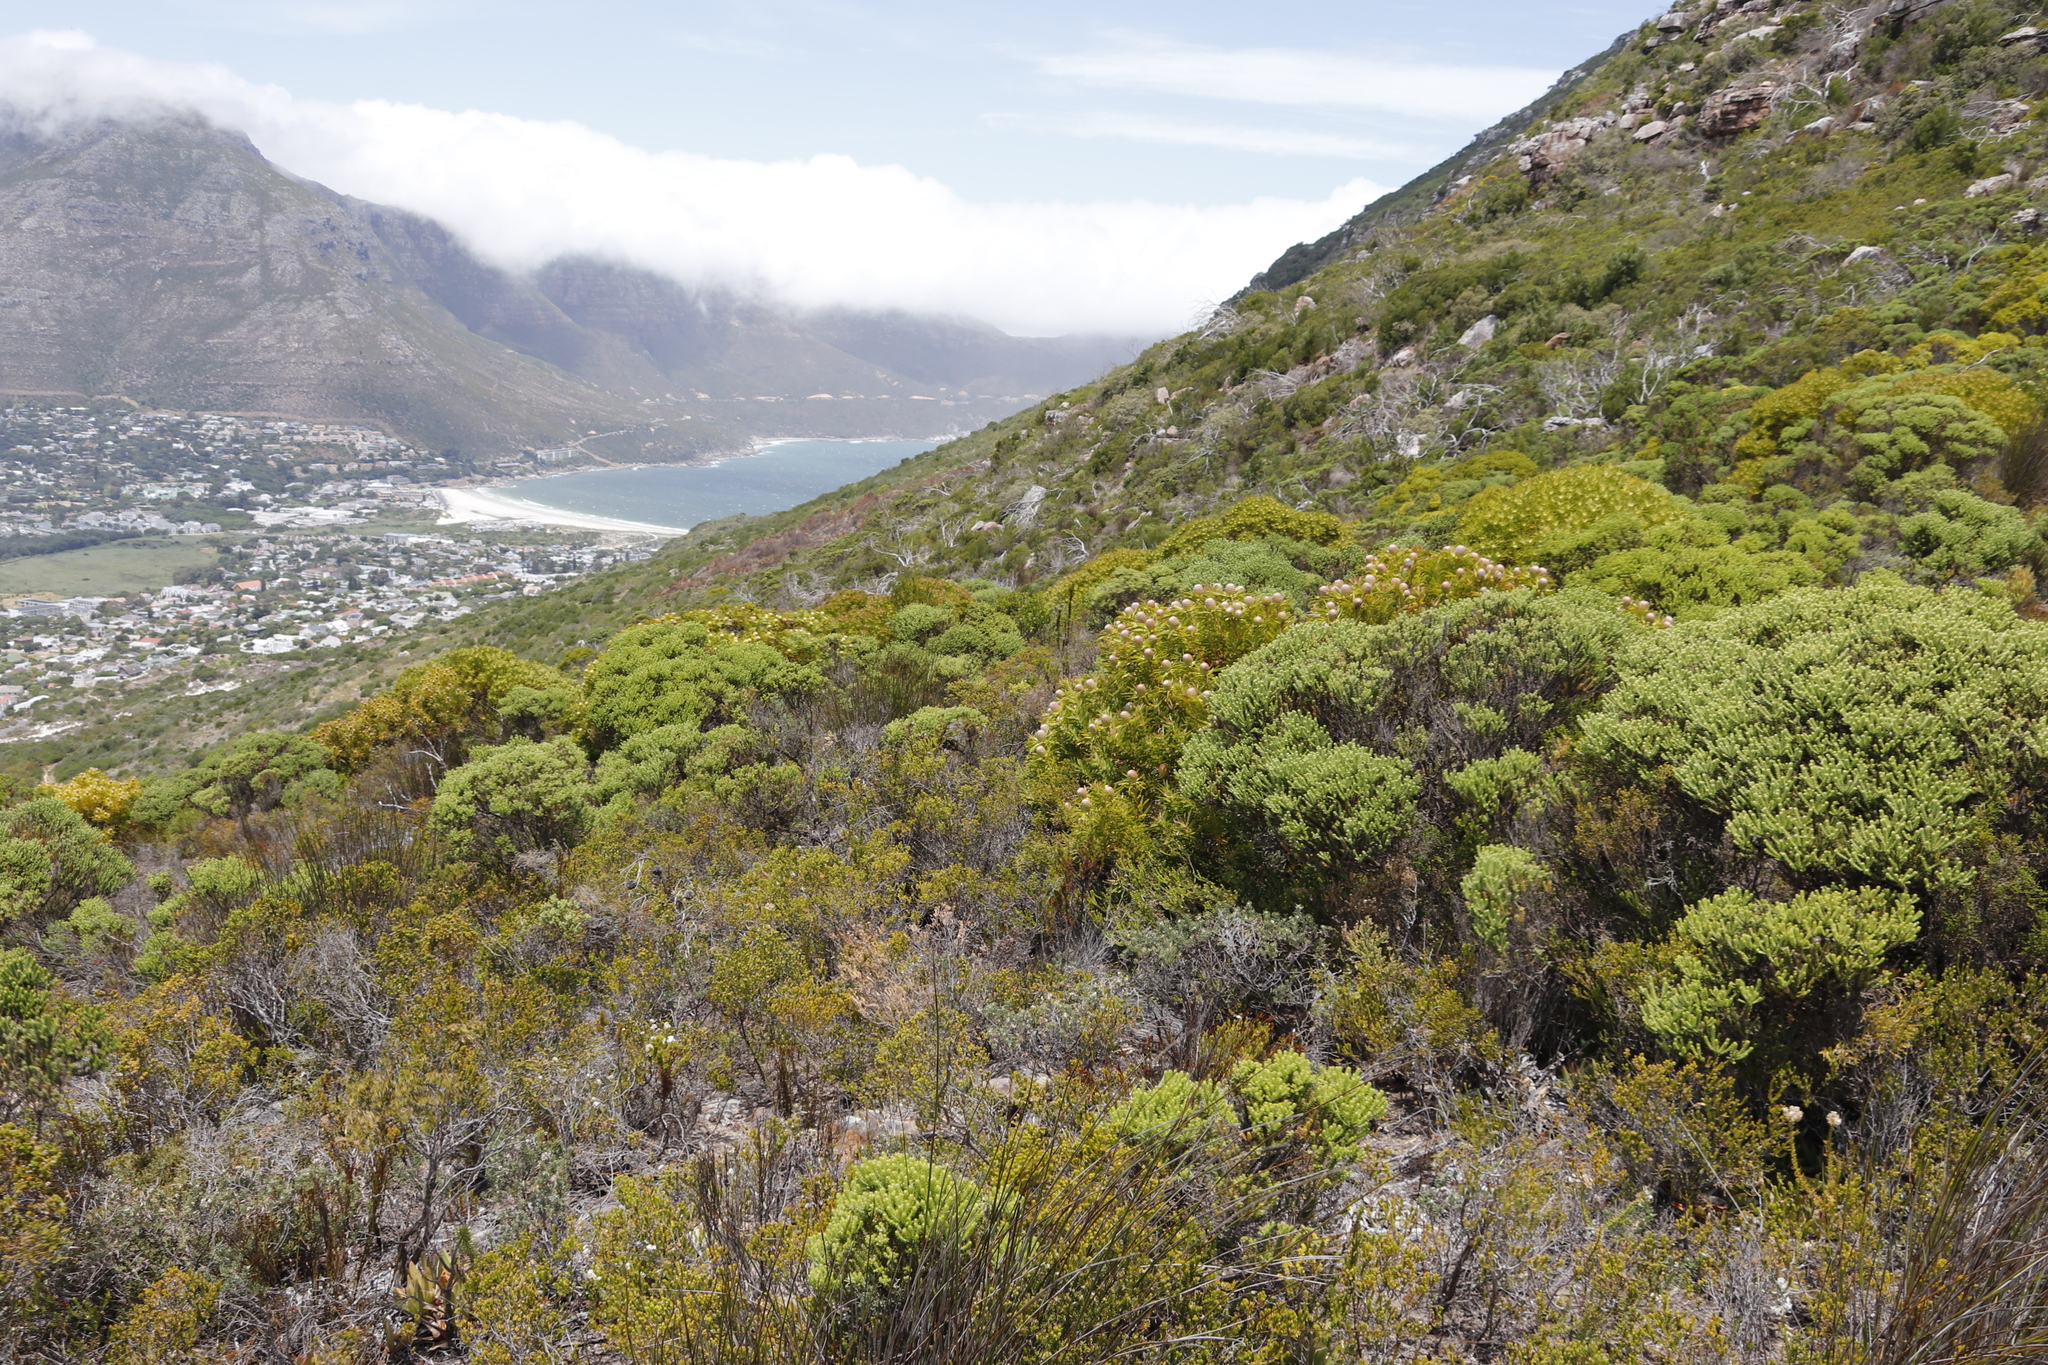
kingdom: Plantae
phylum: Tracheophyta
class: Magnoliopsida
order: Proteales
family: Proteaceae
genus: Leucadendron
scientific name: Leucadendron coniferum
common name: Dune conebush
